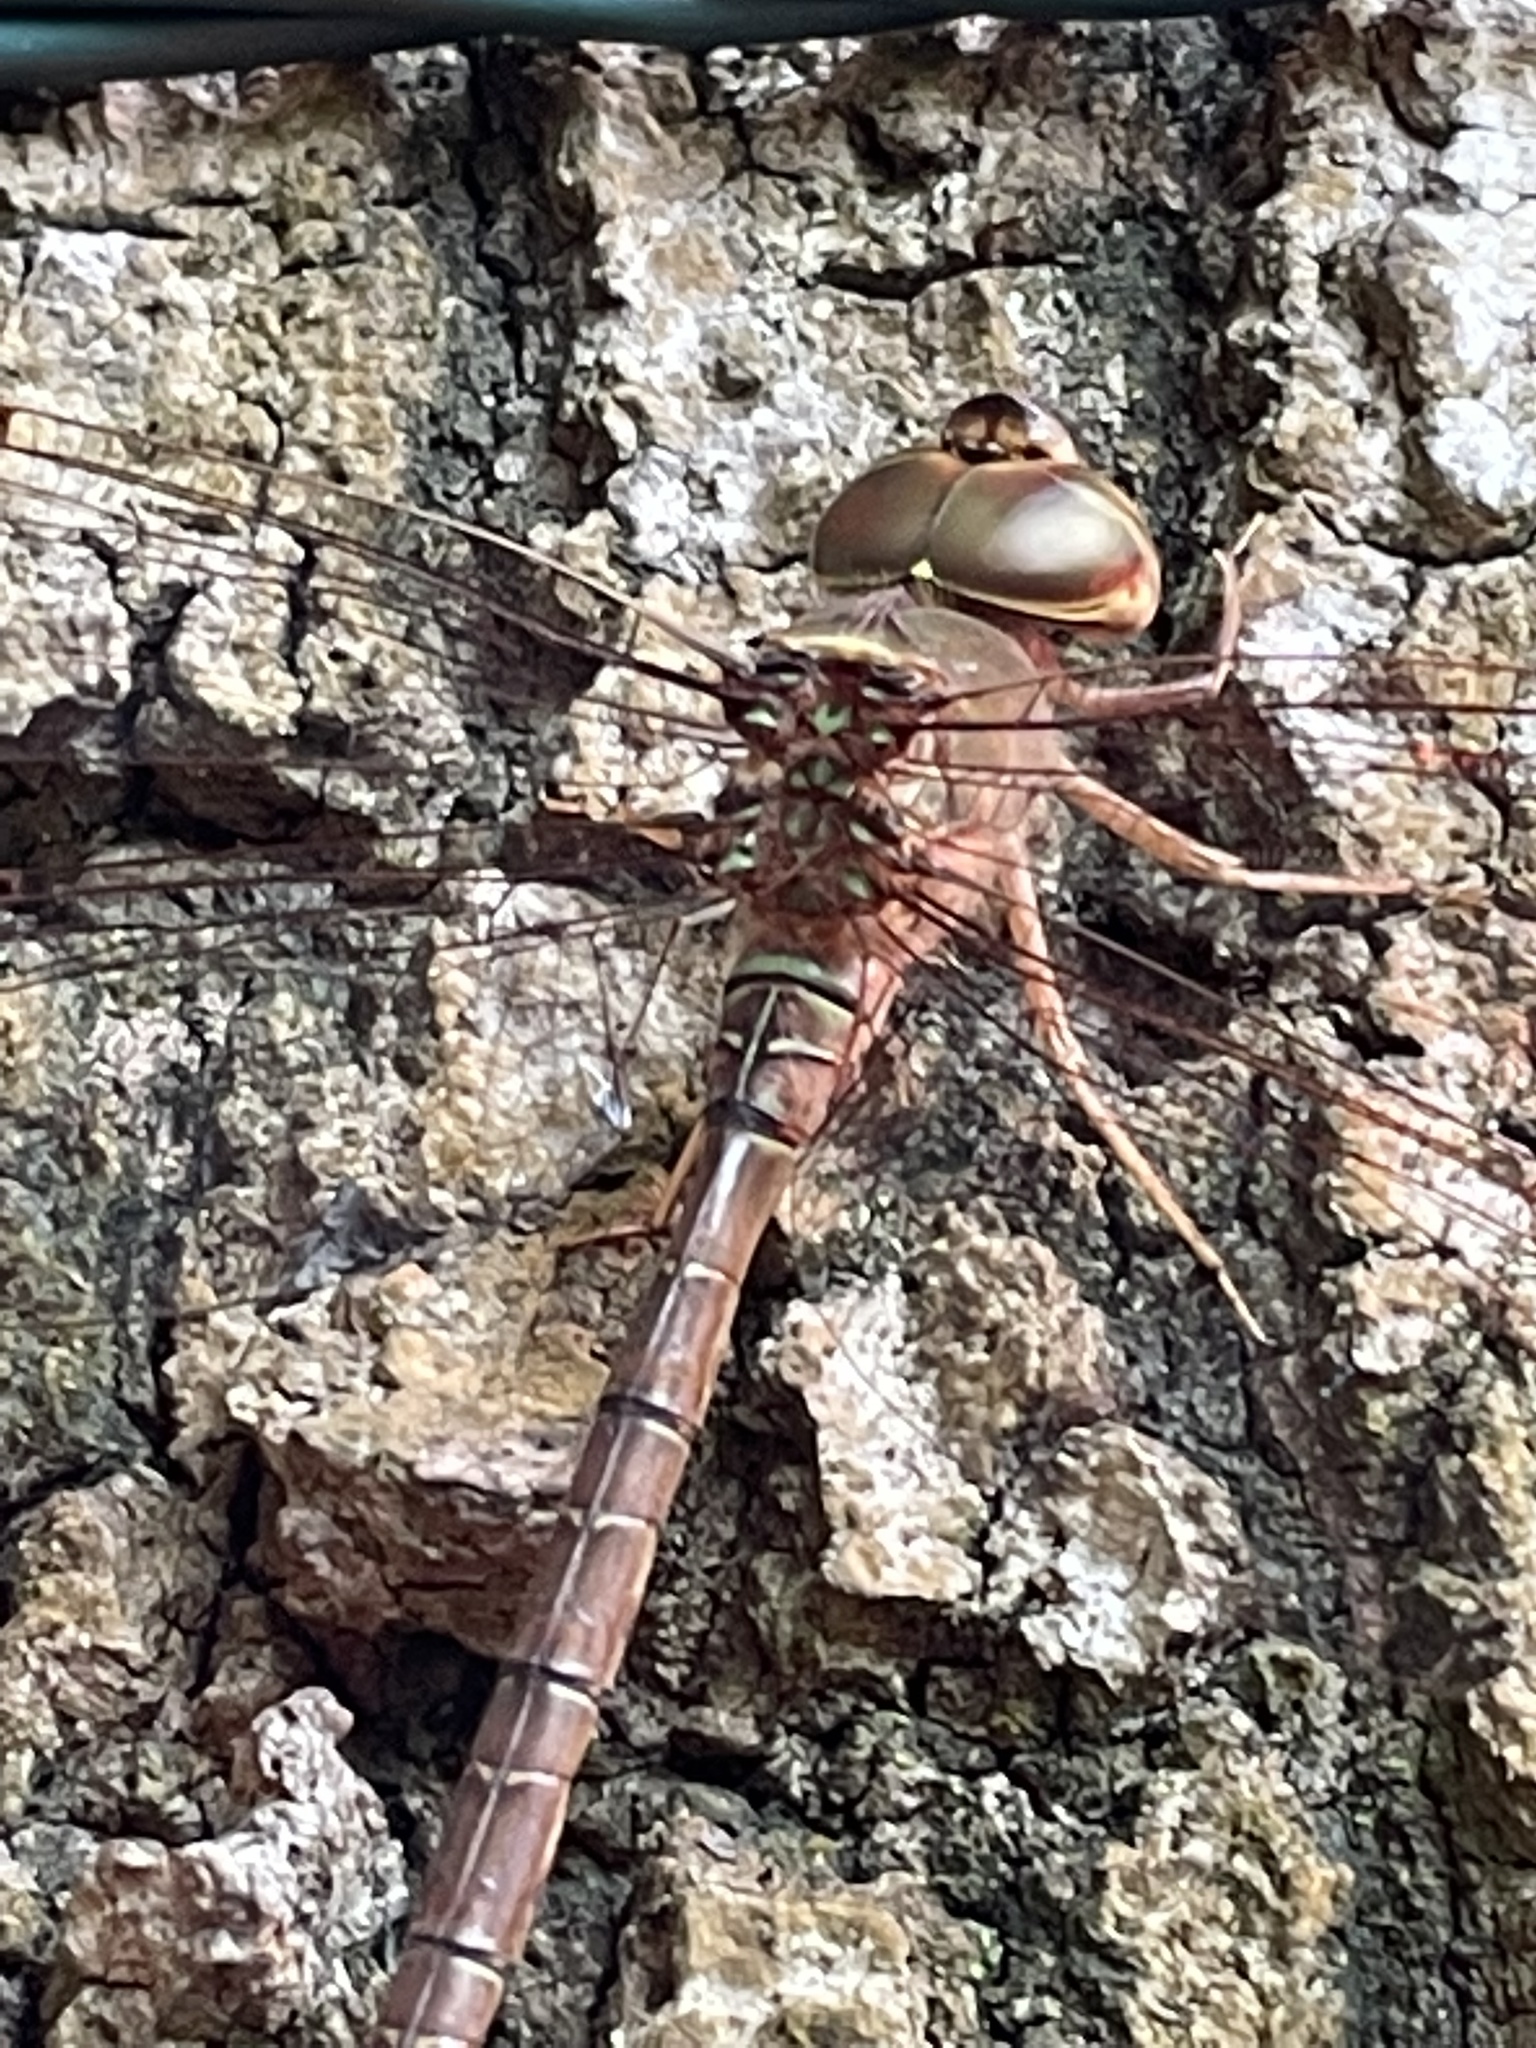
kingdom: Animalia
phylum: Arthropoda
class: Insecta
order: Odonata
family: Aeshnidae
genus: Gynacantha
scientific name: Gynacantha nervosa
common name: Twilight darner
